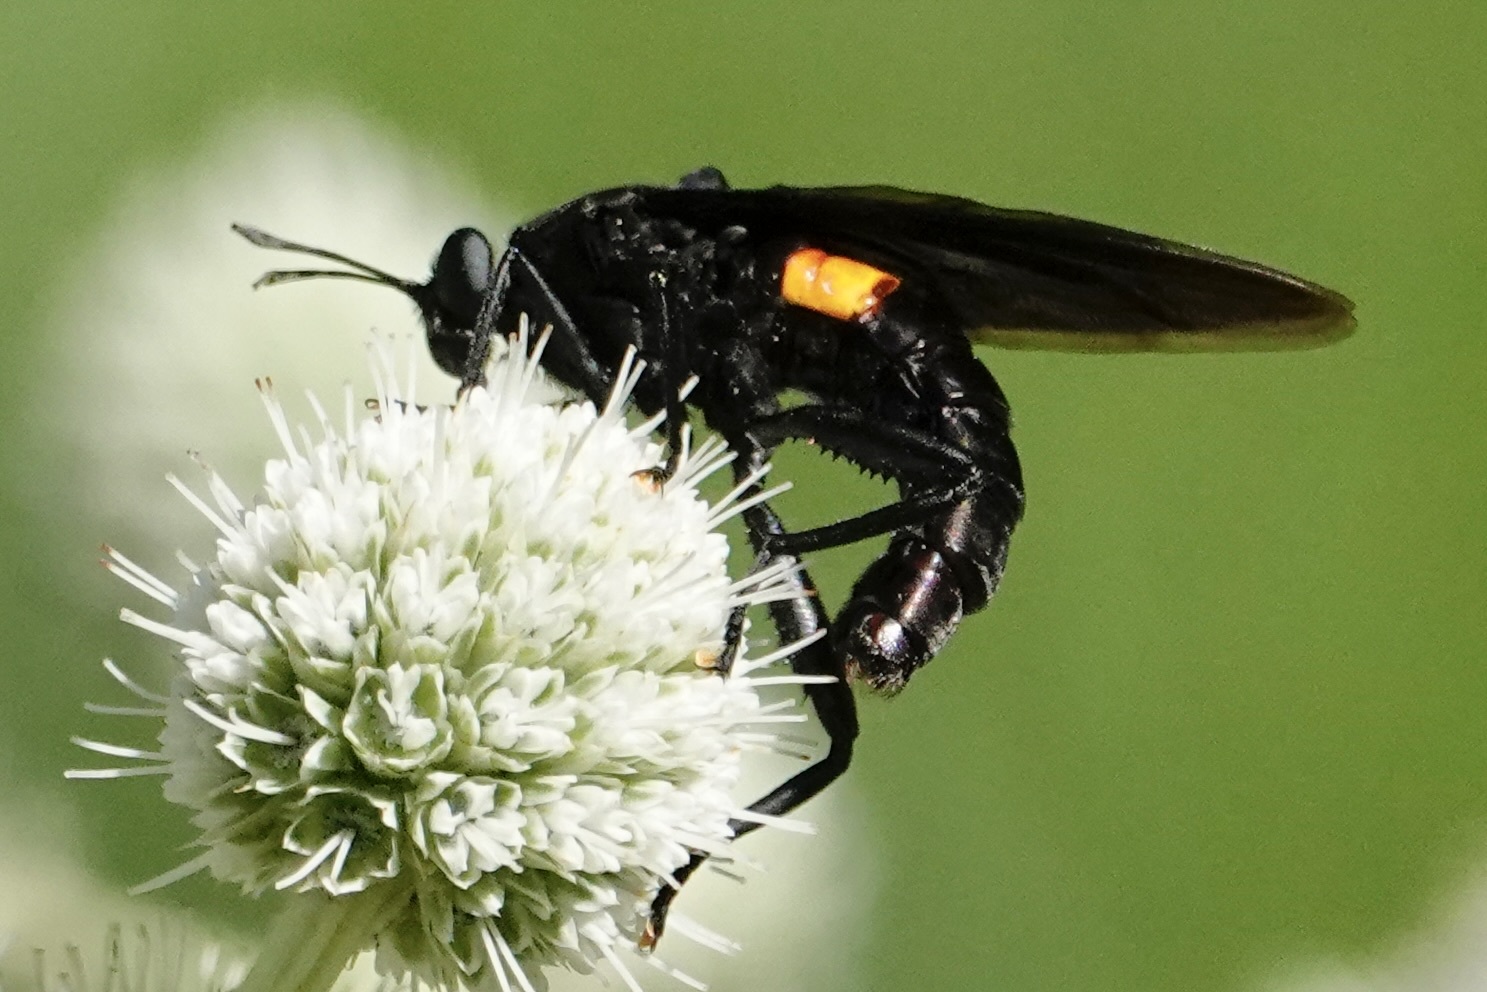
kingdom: Animalia
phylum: Arthropoda
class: Insecta
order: Diptera
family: Mydidae
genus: Mydas
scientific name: Mydas clavatus
